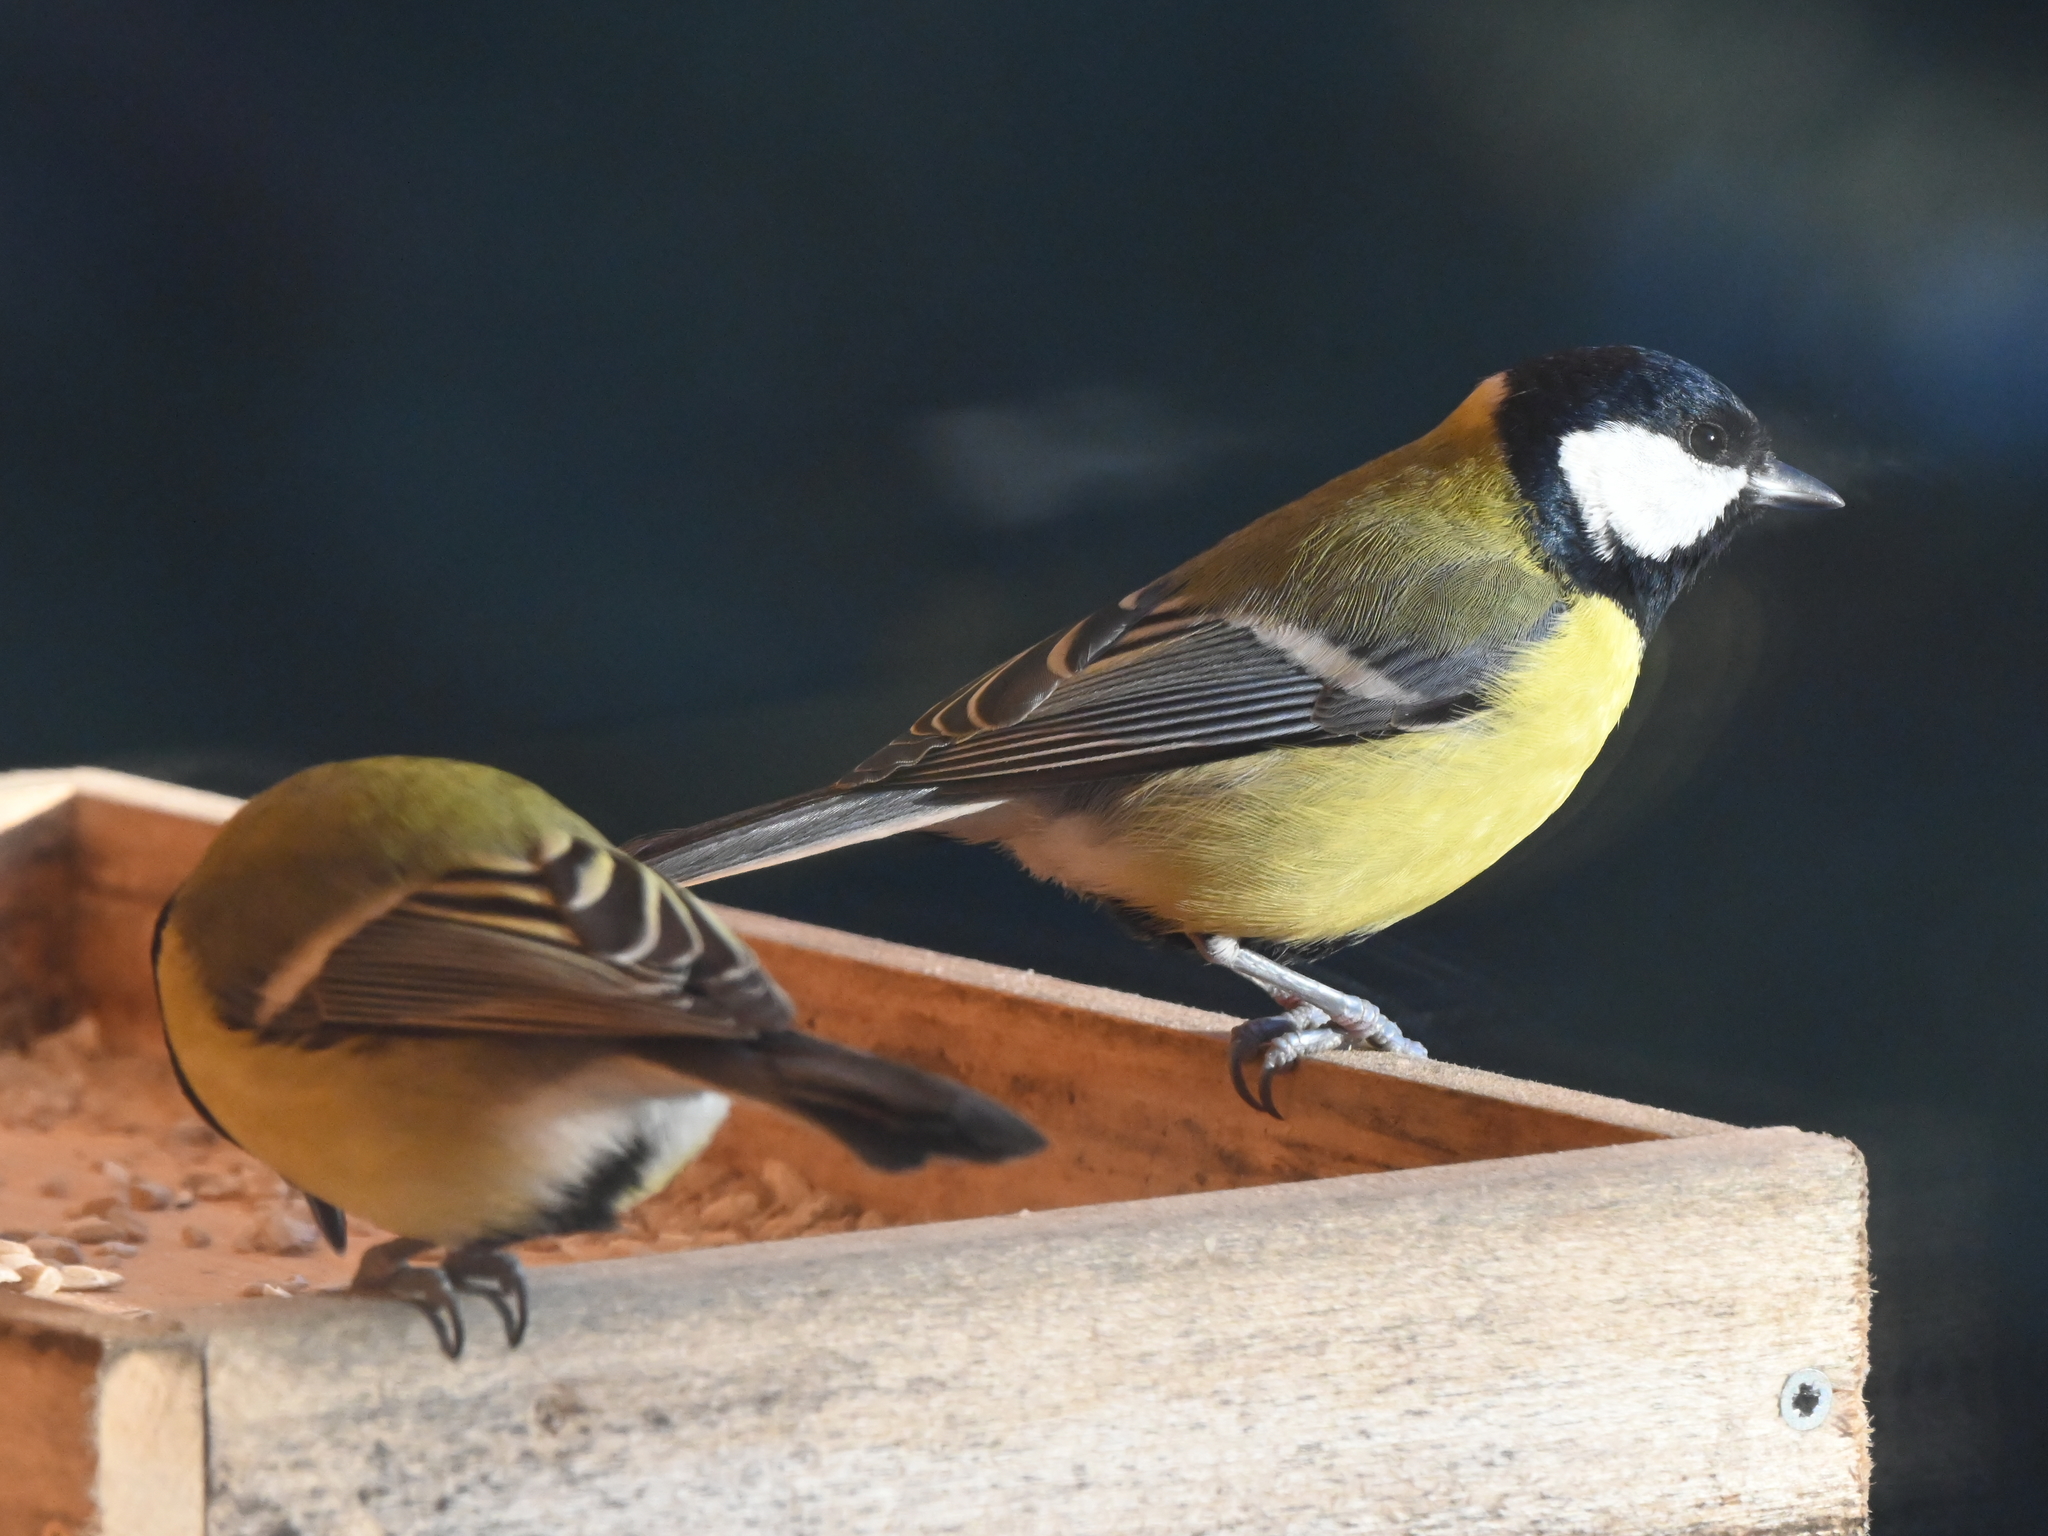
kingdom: Animalia
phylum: Chordata
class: Aves
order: Passeriformes
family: Paridae
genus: Parus
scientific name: Parus major
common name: Great tit
